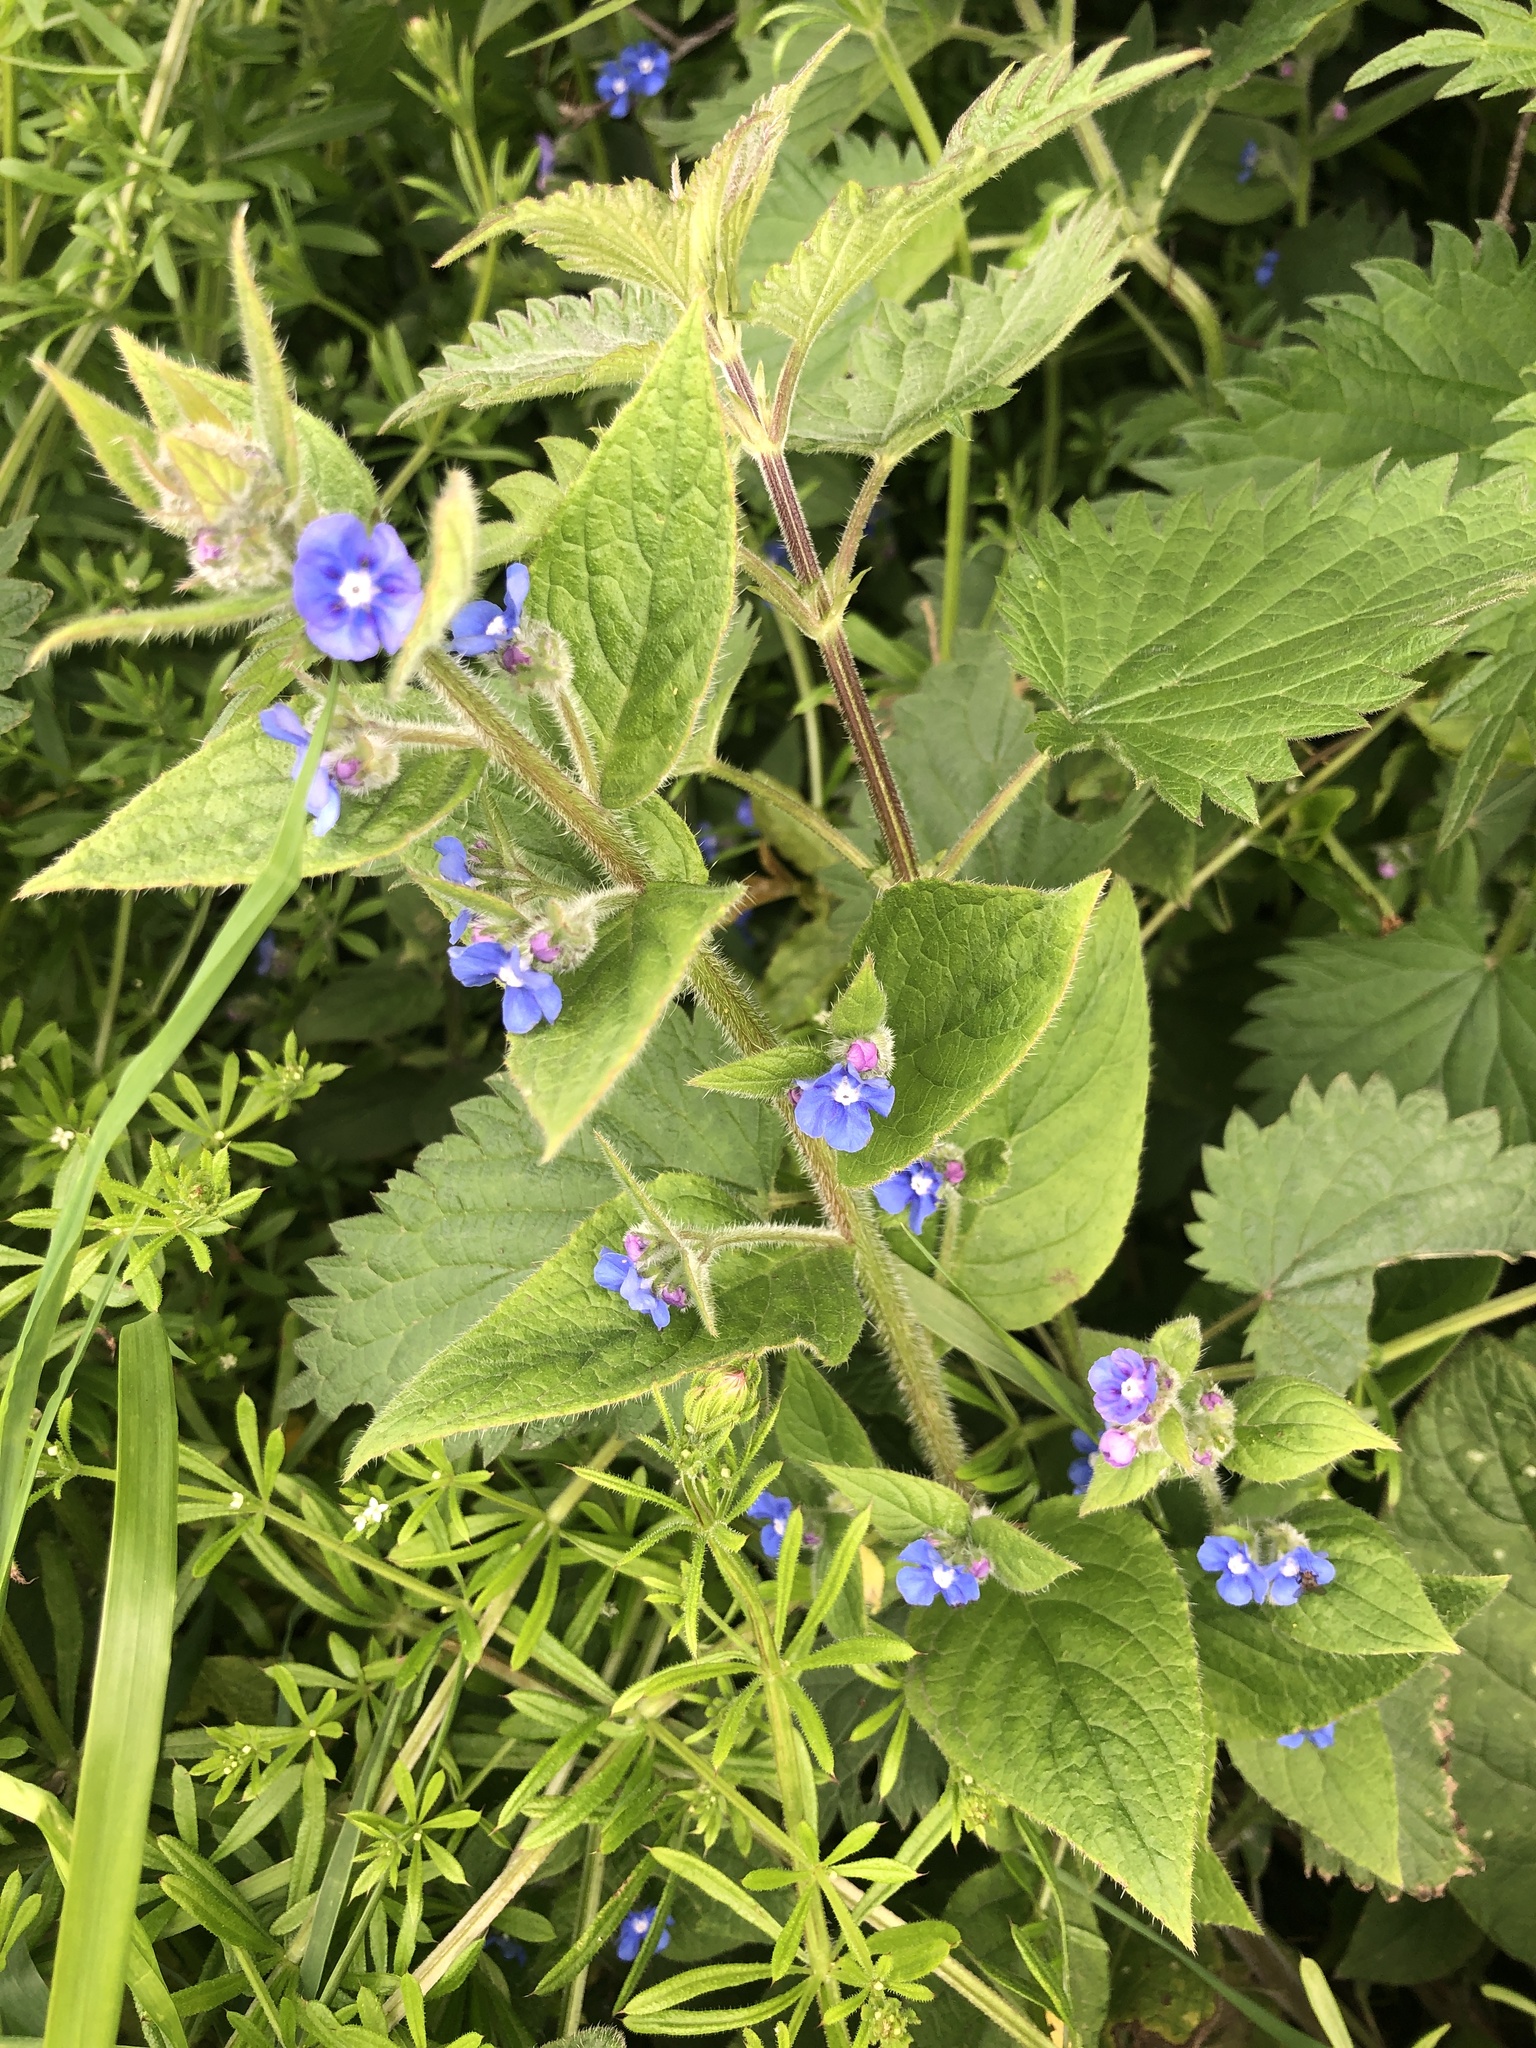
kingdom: Plantae
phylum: Tracheophyta
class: Magnoliopsida
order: Boraginales
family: Boraginaceae
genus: Pentaglottis
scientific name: Pentaglottis sempervirens
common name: Green alkanet
